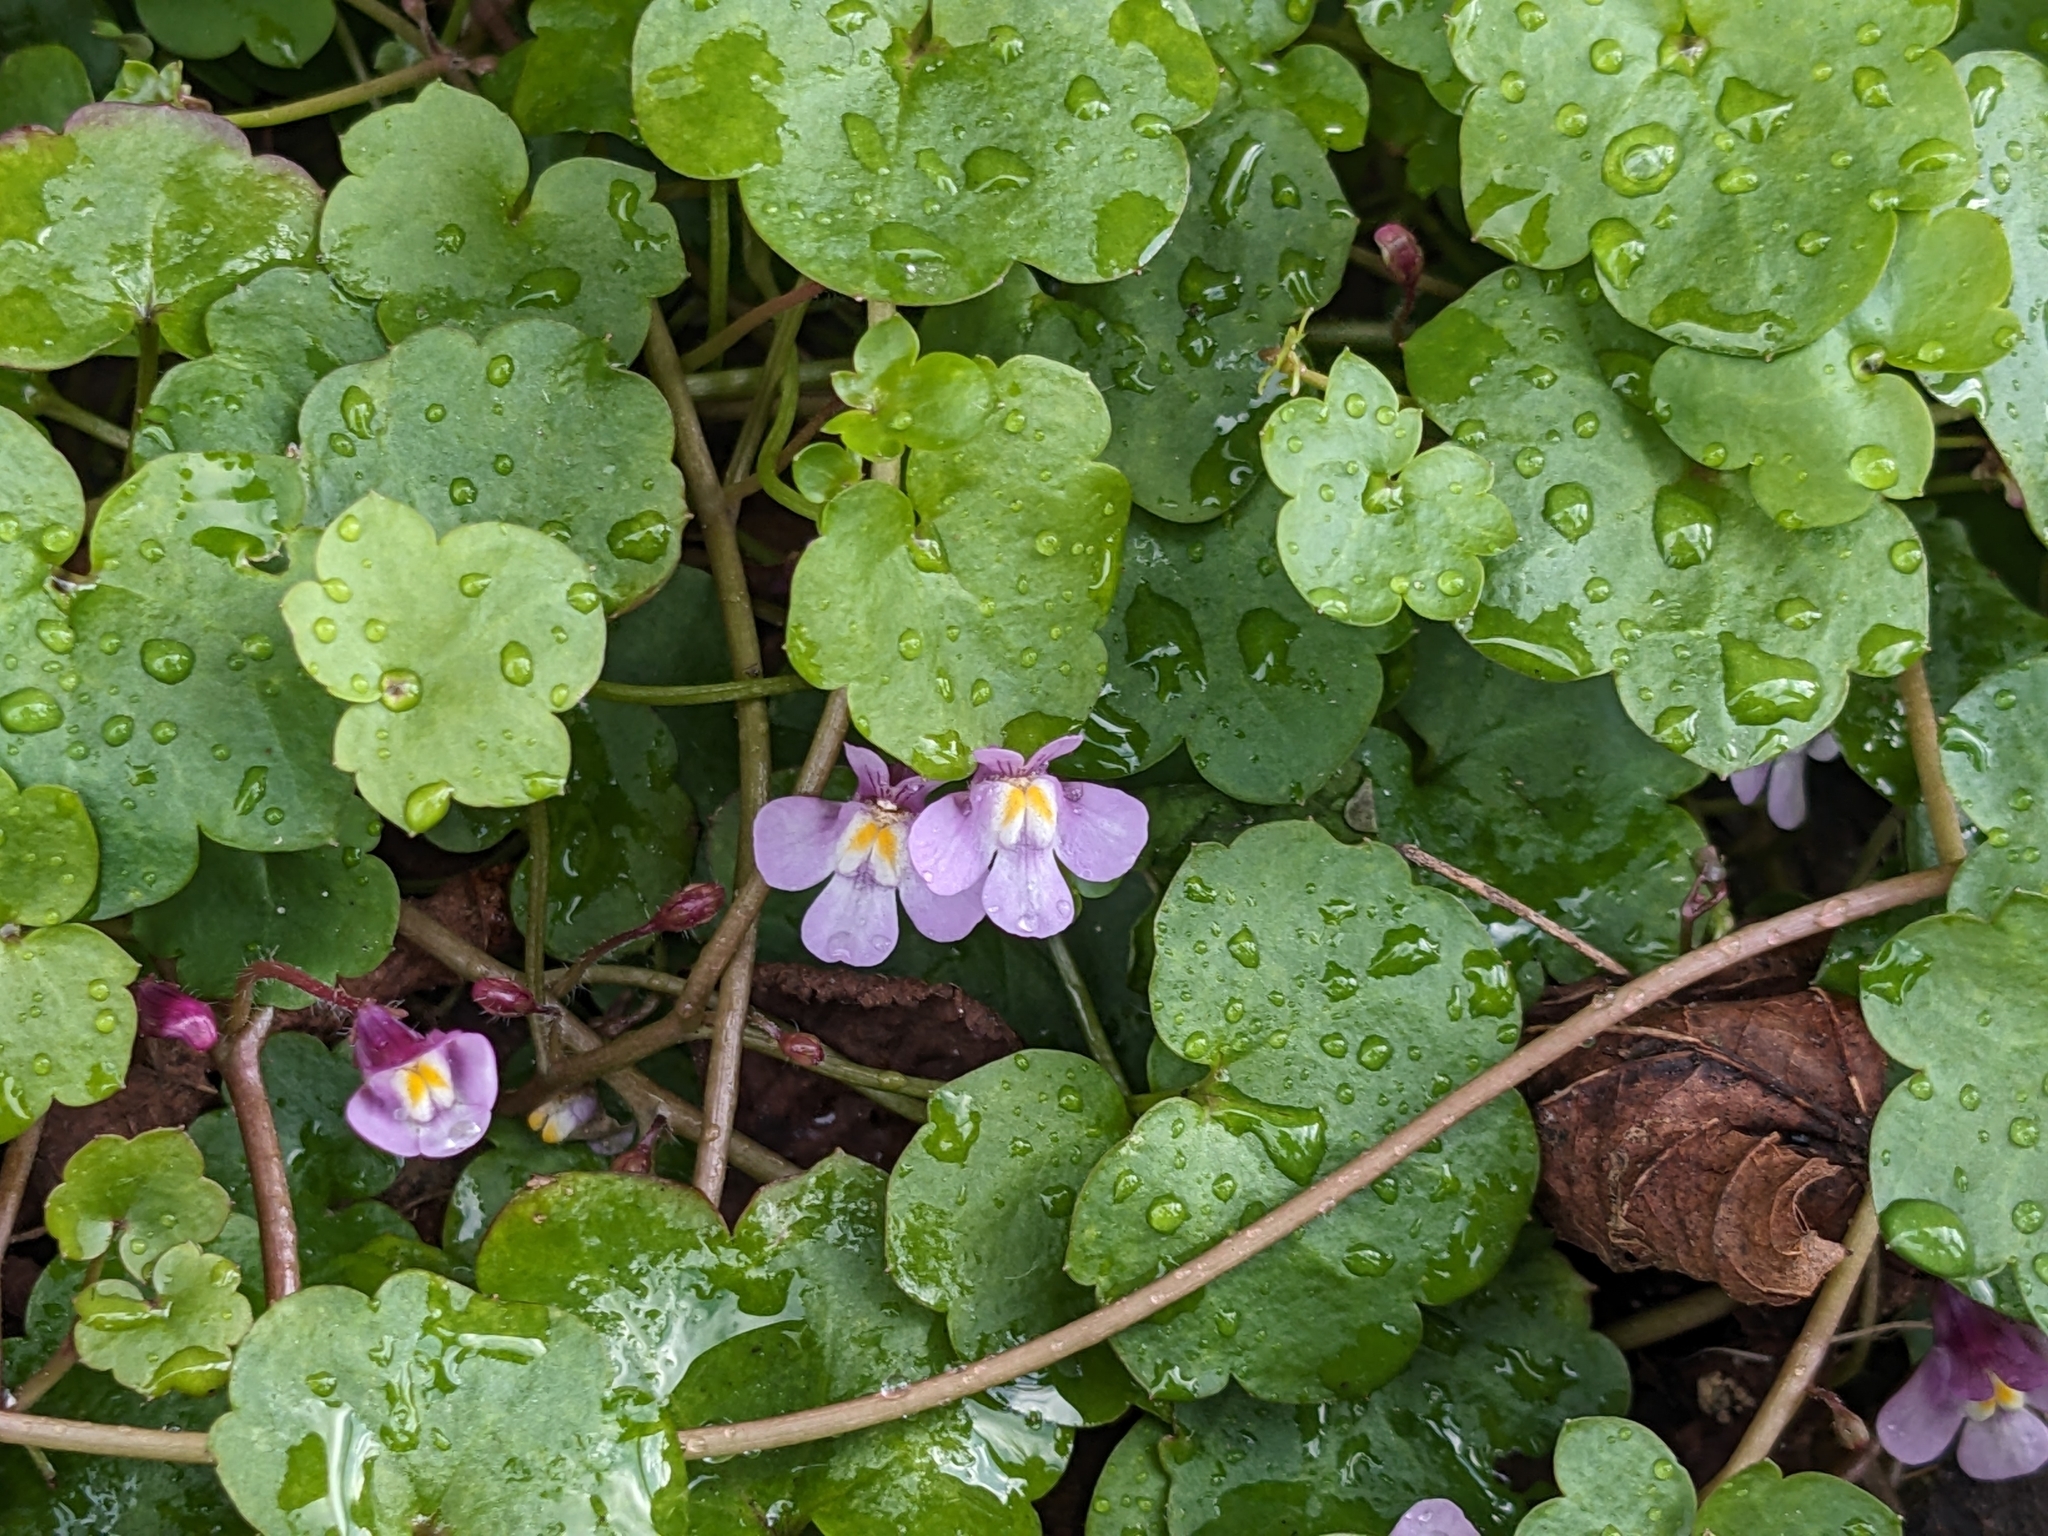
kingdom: Plantae
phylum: Tracheophyta
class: Magnoliopsida
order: Lamiales
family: Plantaginaceae
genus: Cymbalaria
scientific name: Cymbalaria muralis
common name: Ivy-leaved toadflax
